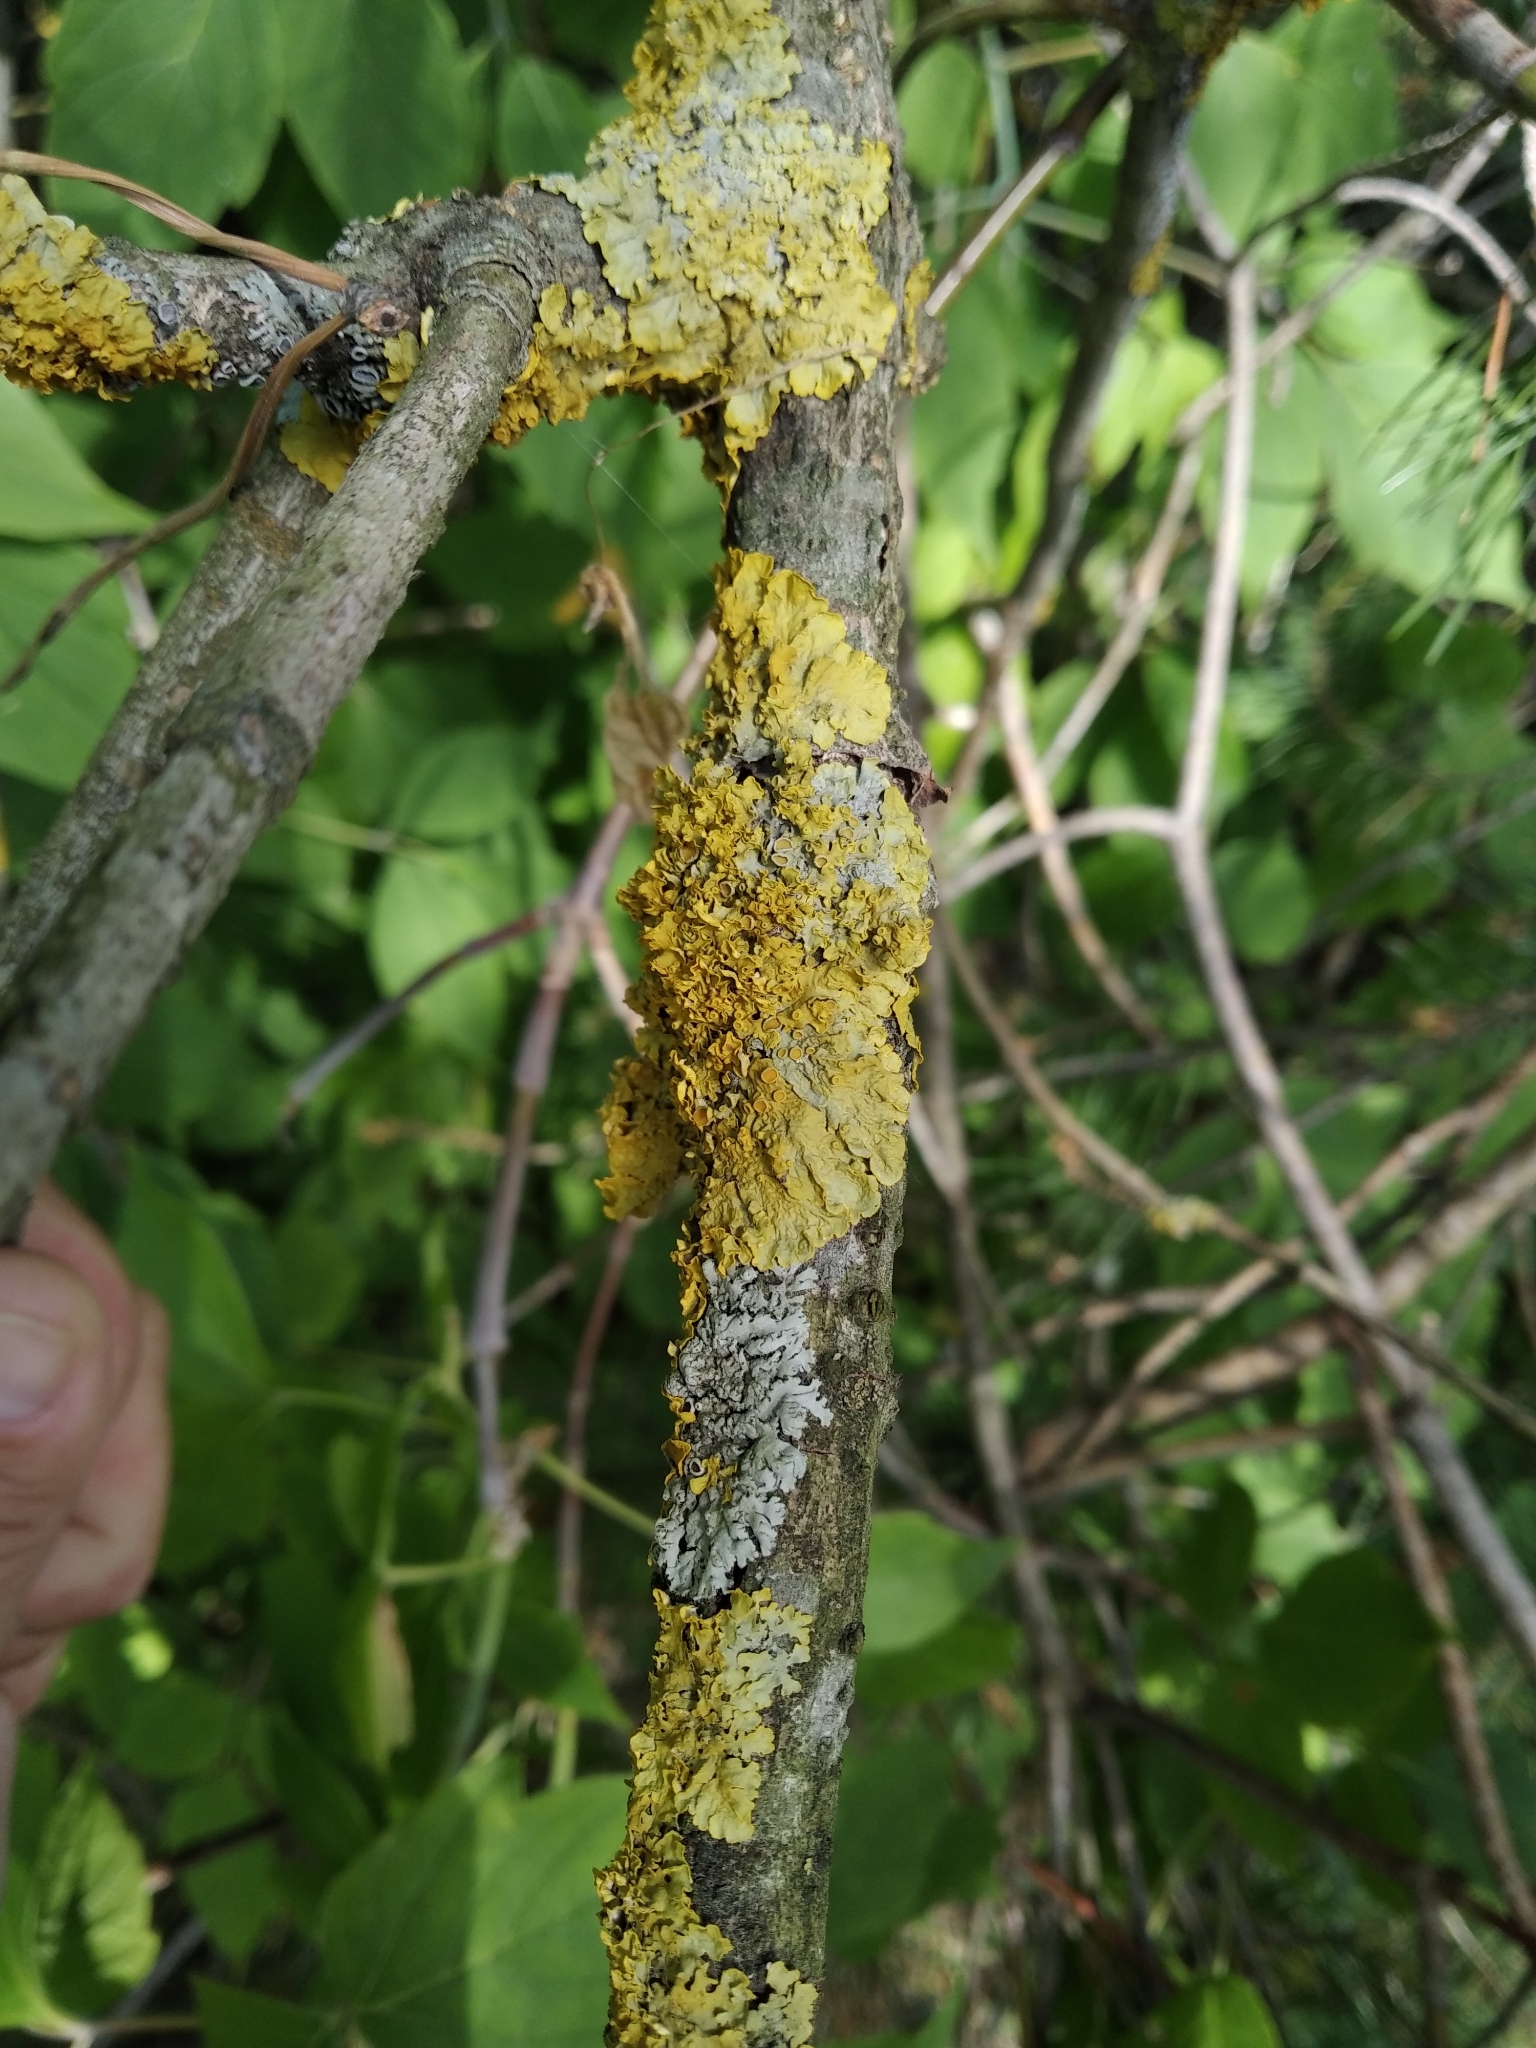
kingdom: Fungi
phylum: Ascomycota
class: Lecanoromycetes
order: Teloschistales
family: Teloschistaceae
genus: Xanthoria
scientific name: Xanthoria parietina
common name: Common orange lichen
